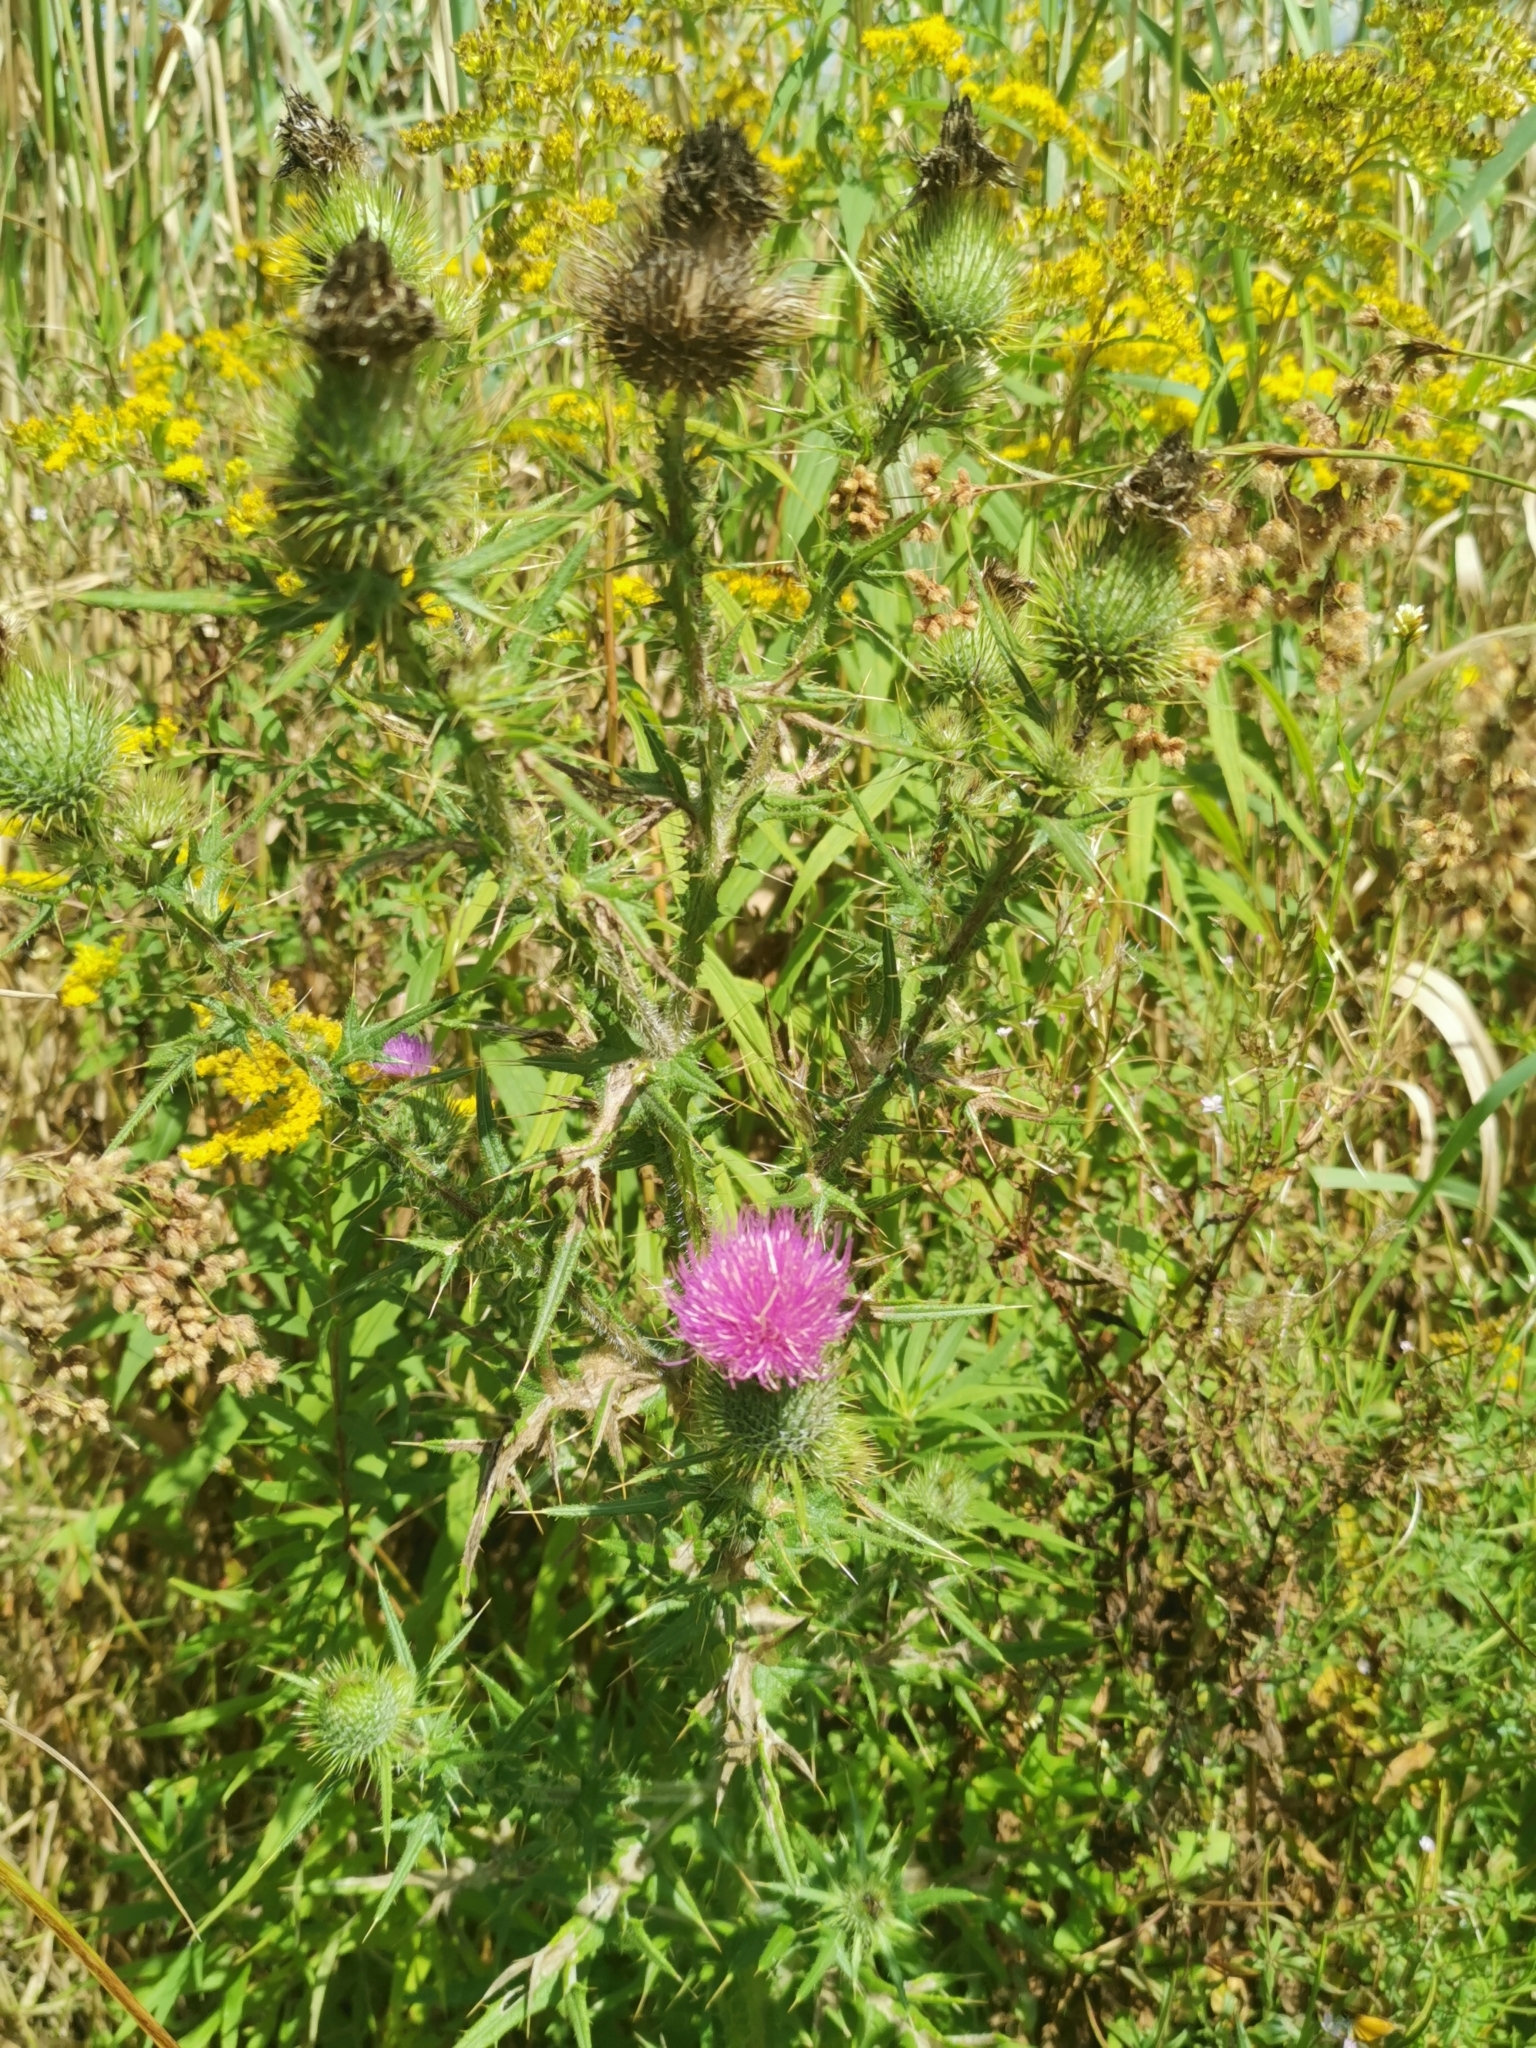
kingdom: Plantae
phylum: Tracheophyta
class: Magnoliopsida
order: Asterales
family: Asteraceae
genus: Cirsium
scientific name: Cirsium vulgare
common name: Bull thistle
